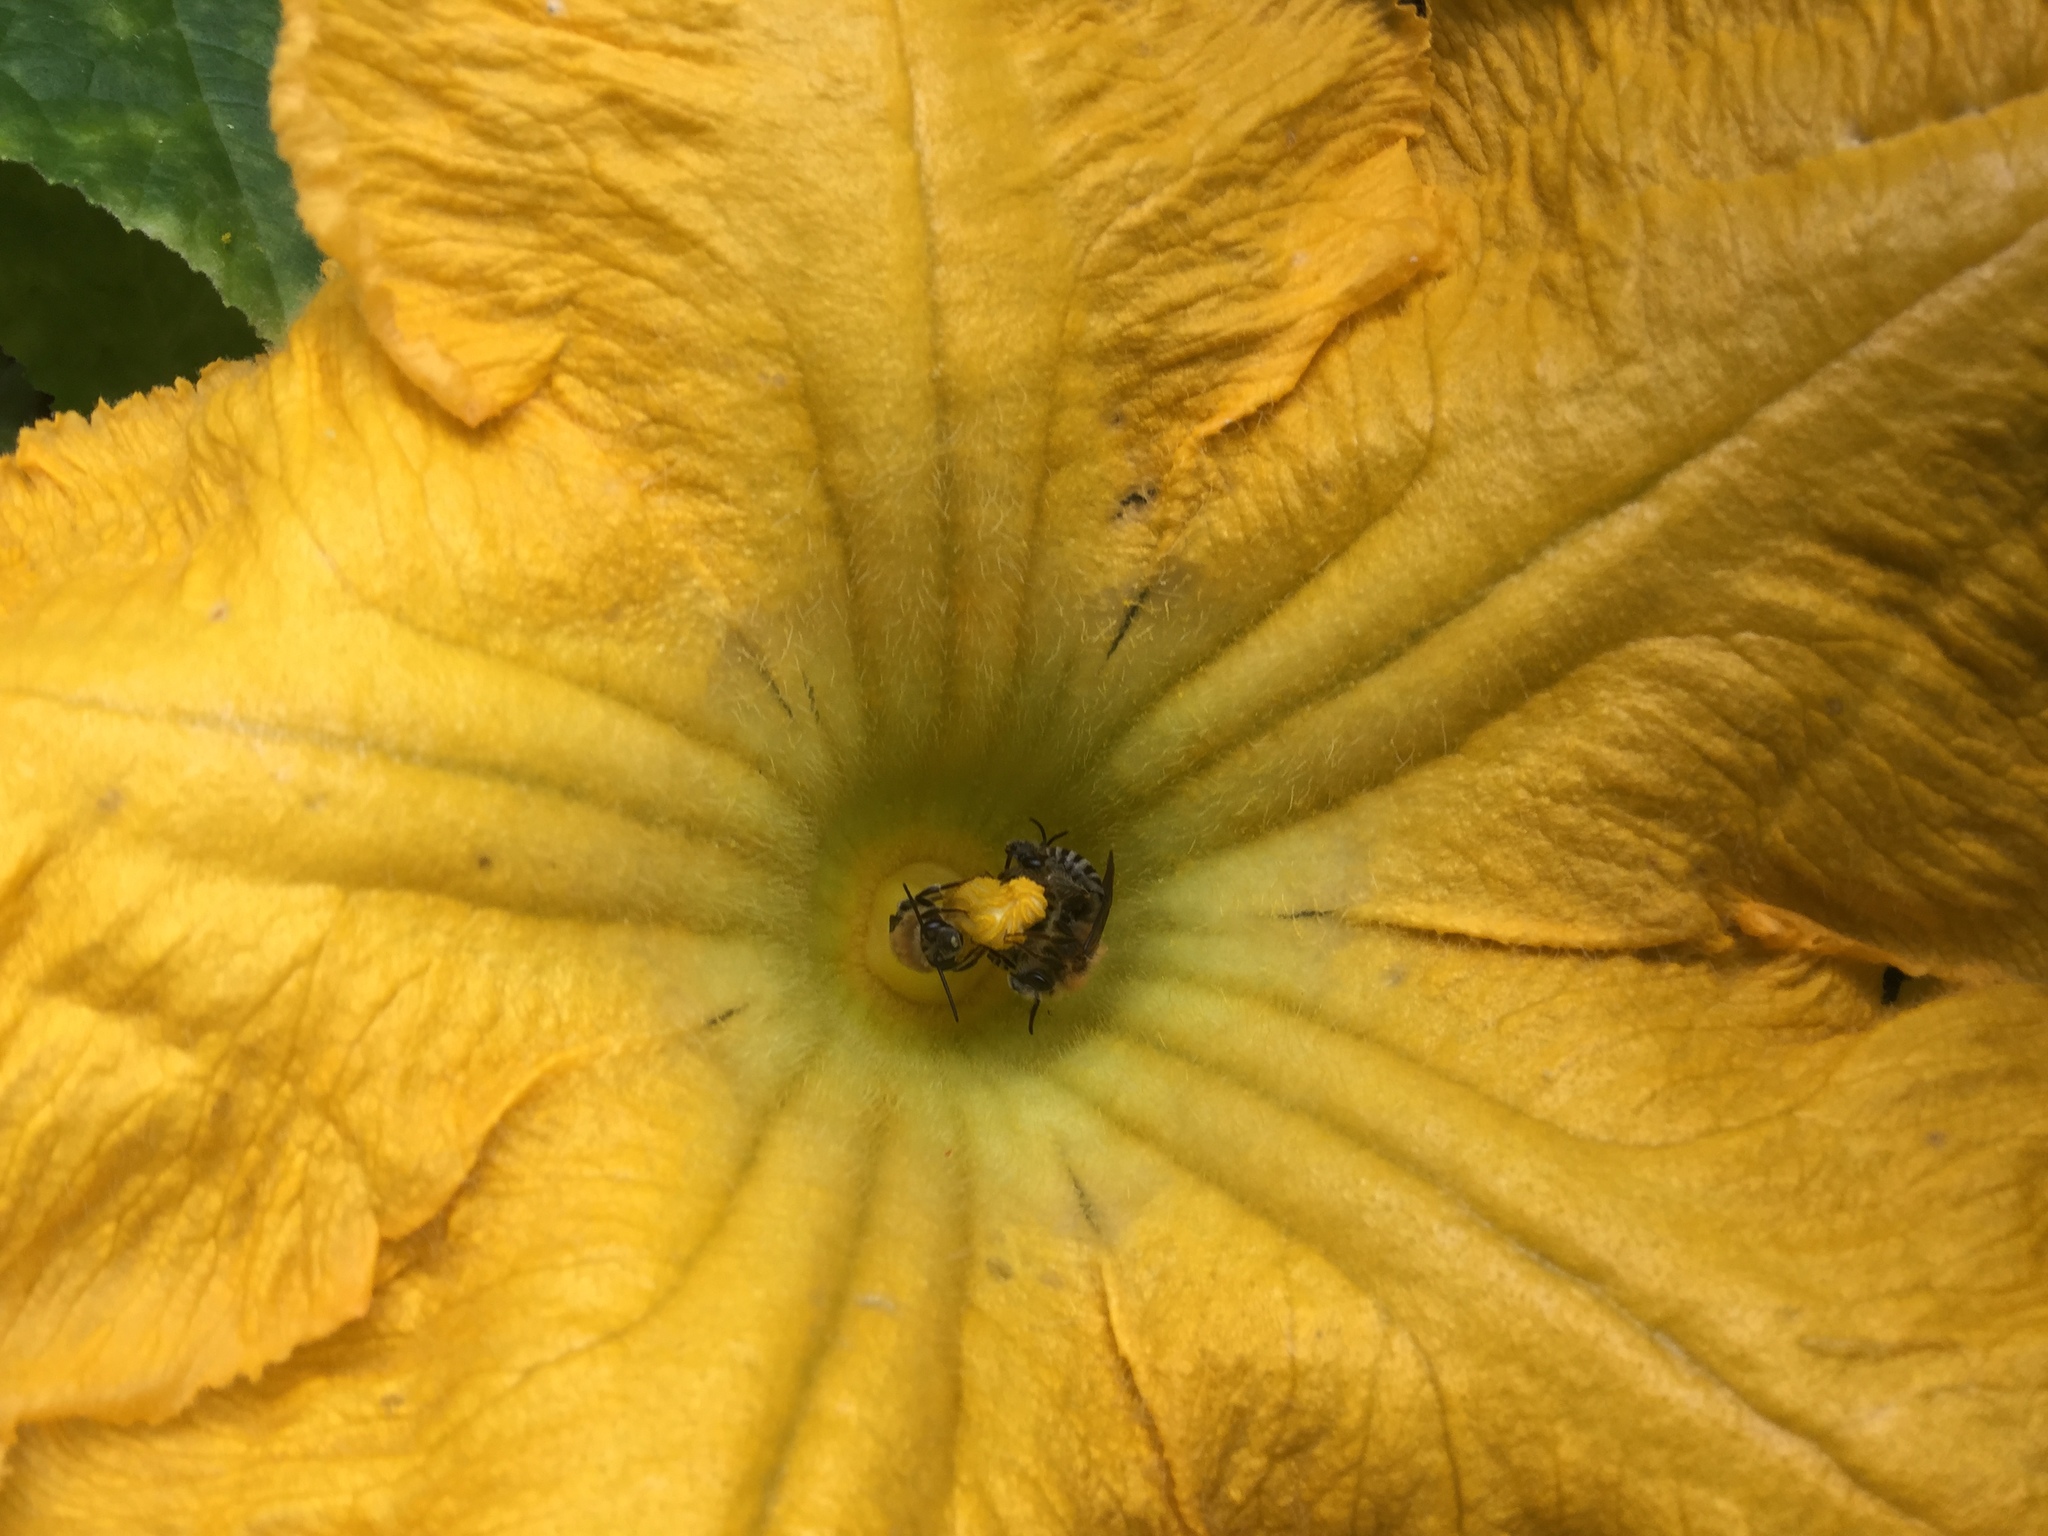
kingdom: Animalia
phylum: Arthropoda
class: Insecta
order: Hymenoptera
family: Apidae
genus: Peponapis
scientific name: Peponapis pruinosa
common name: Pruinose squash bee
